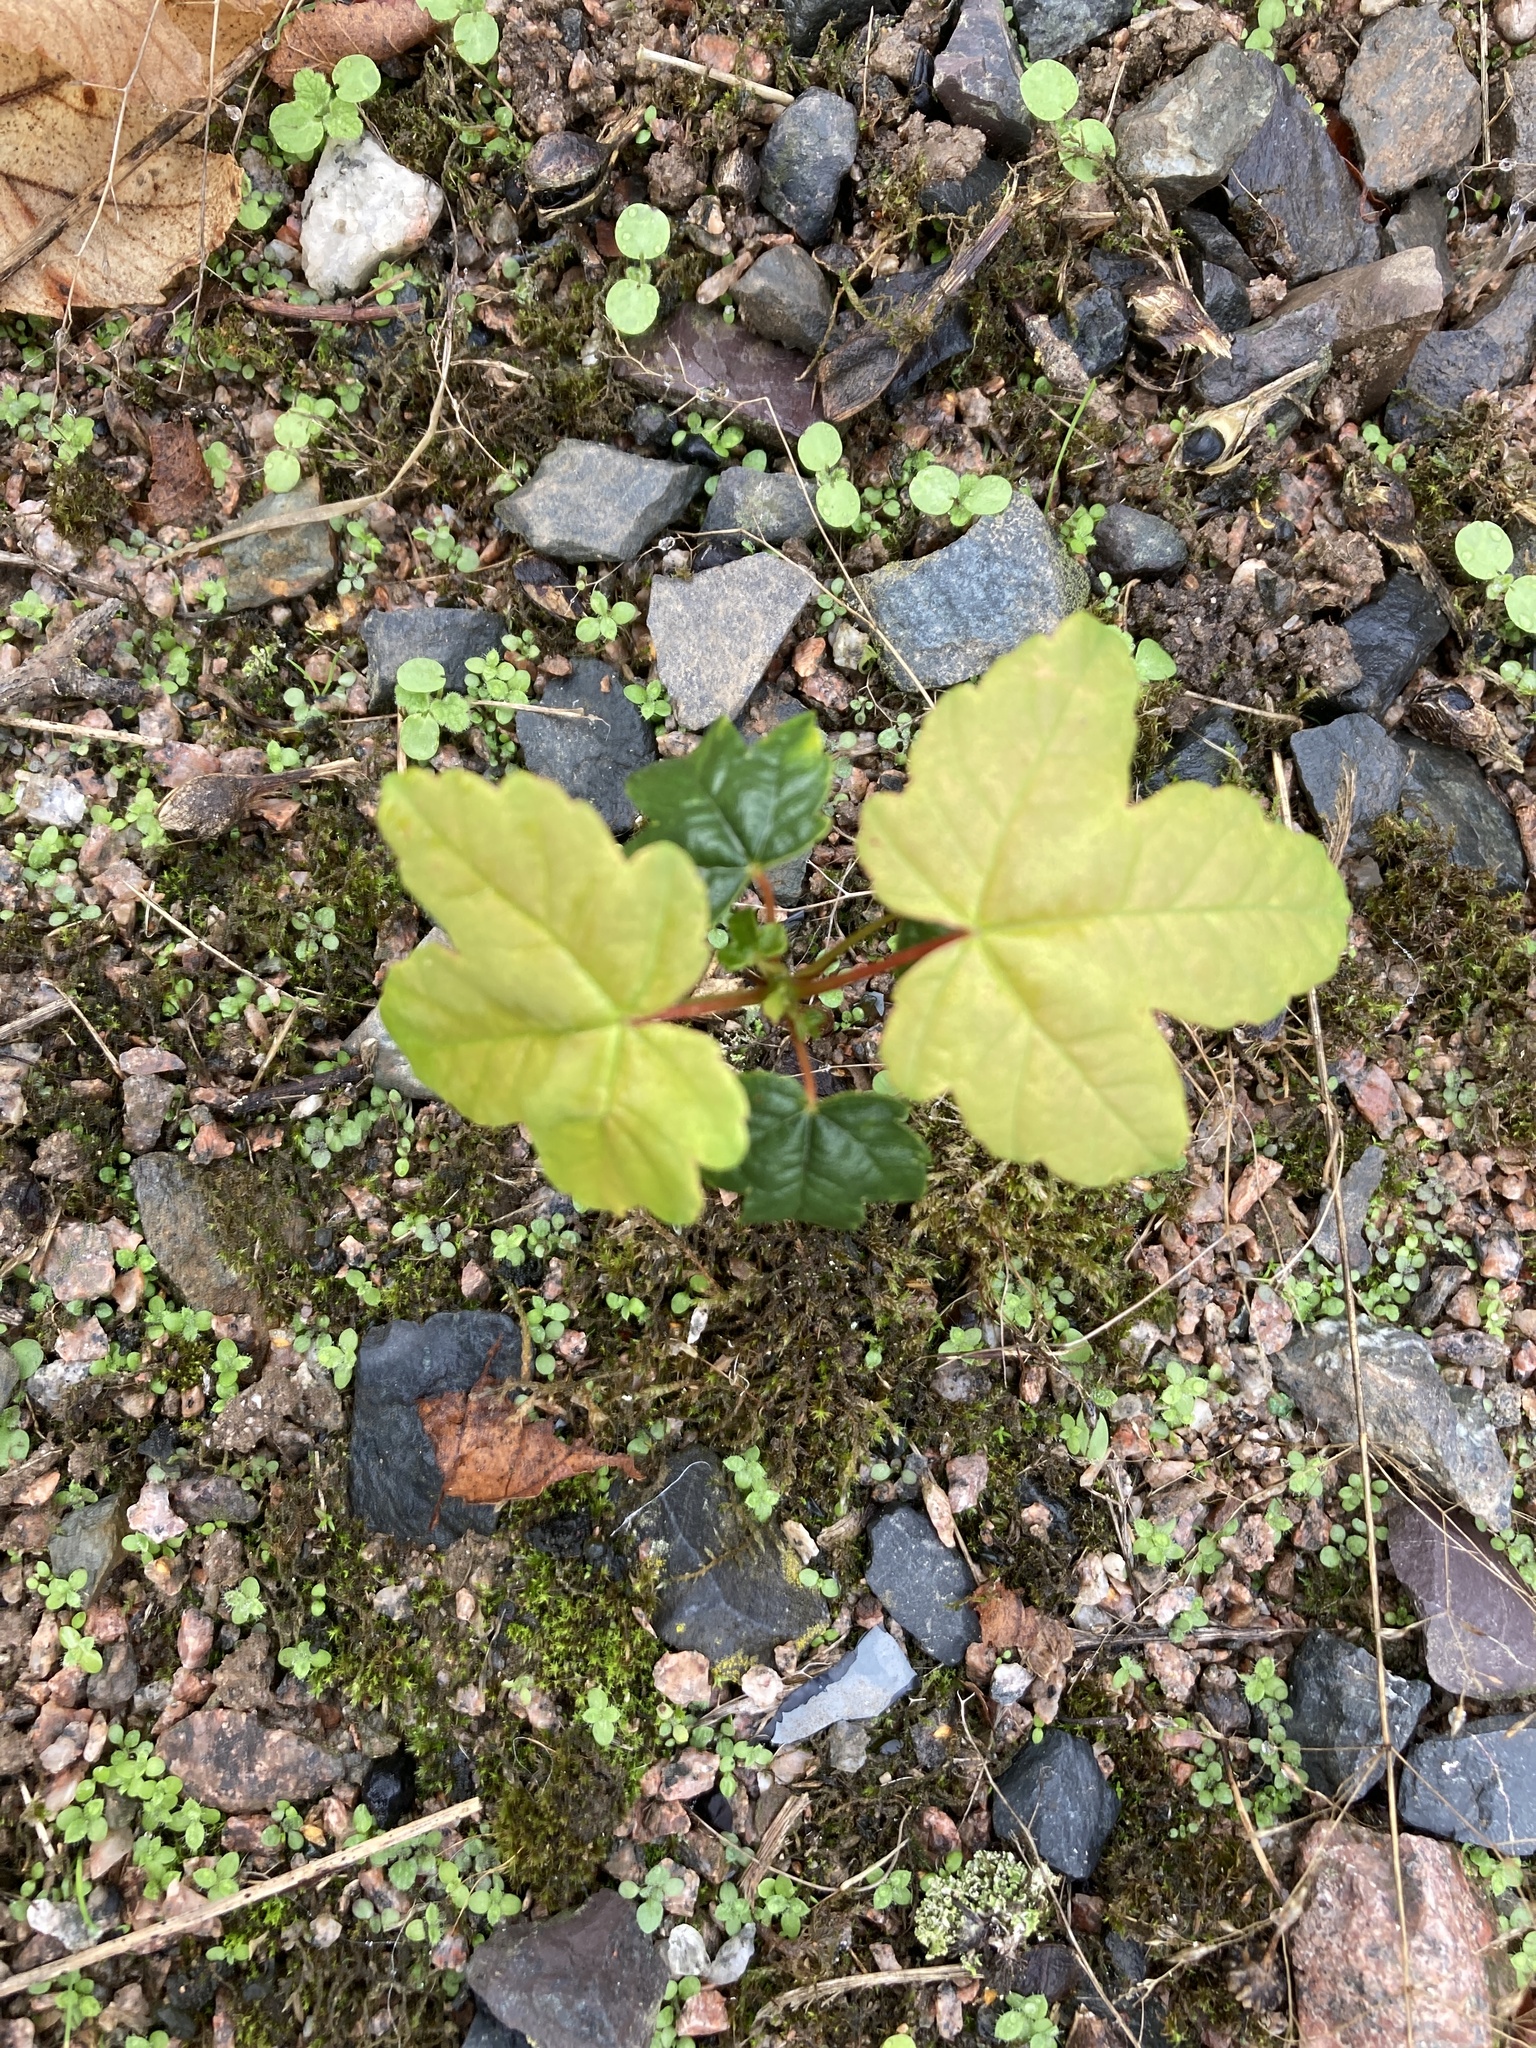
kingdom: Plantae
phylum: Tracheophyta
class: Magnoliopsida
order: Sapindales
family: Sapindaceae
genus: Acer
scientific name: Acer pseudoplatanus
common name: Sycamore
